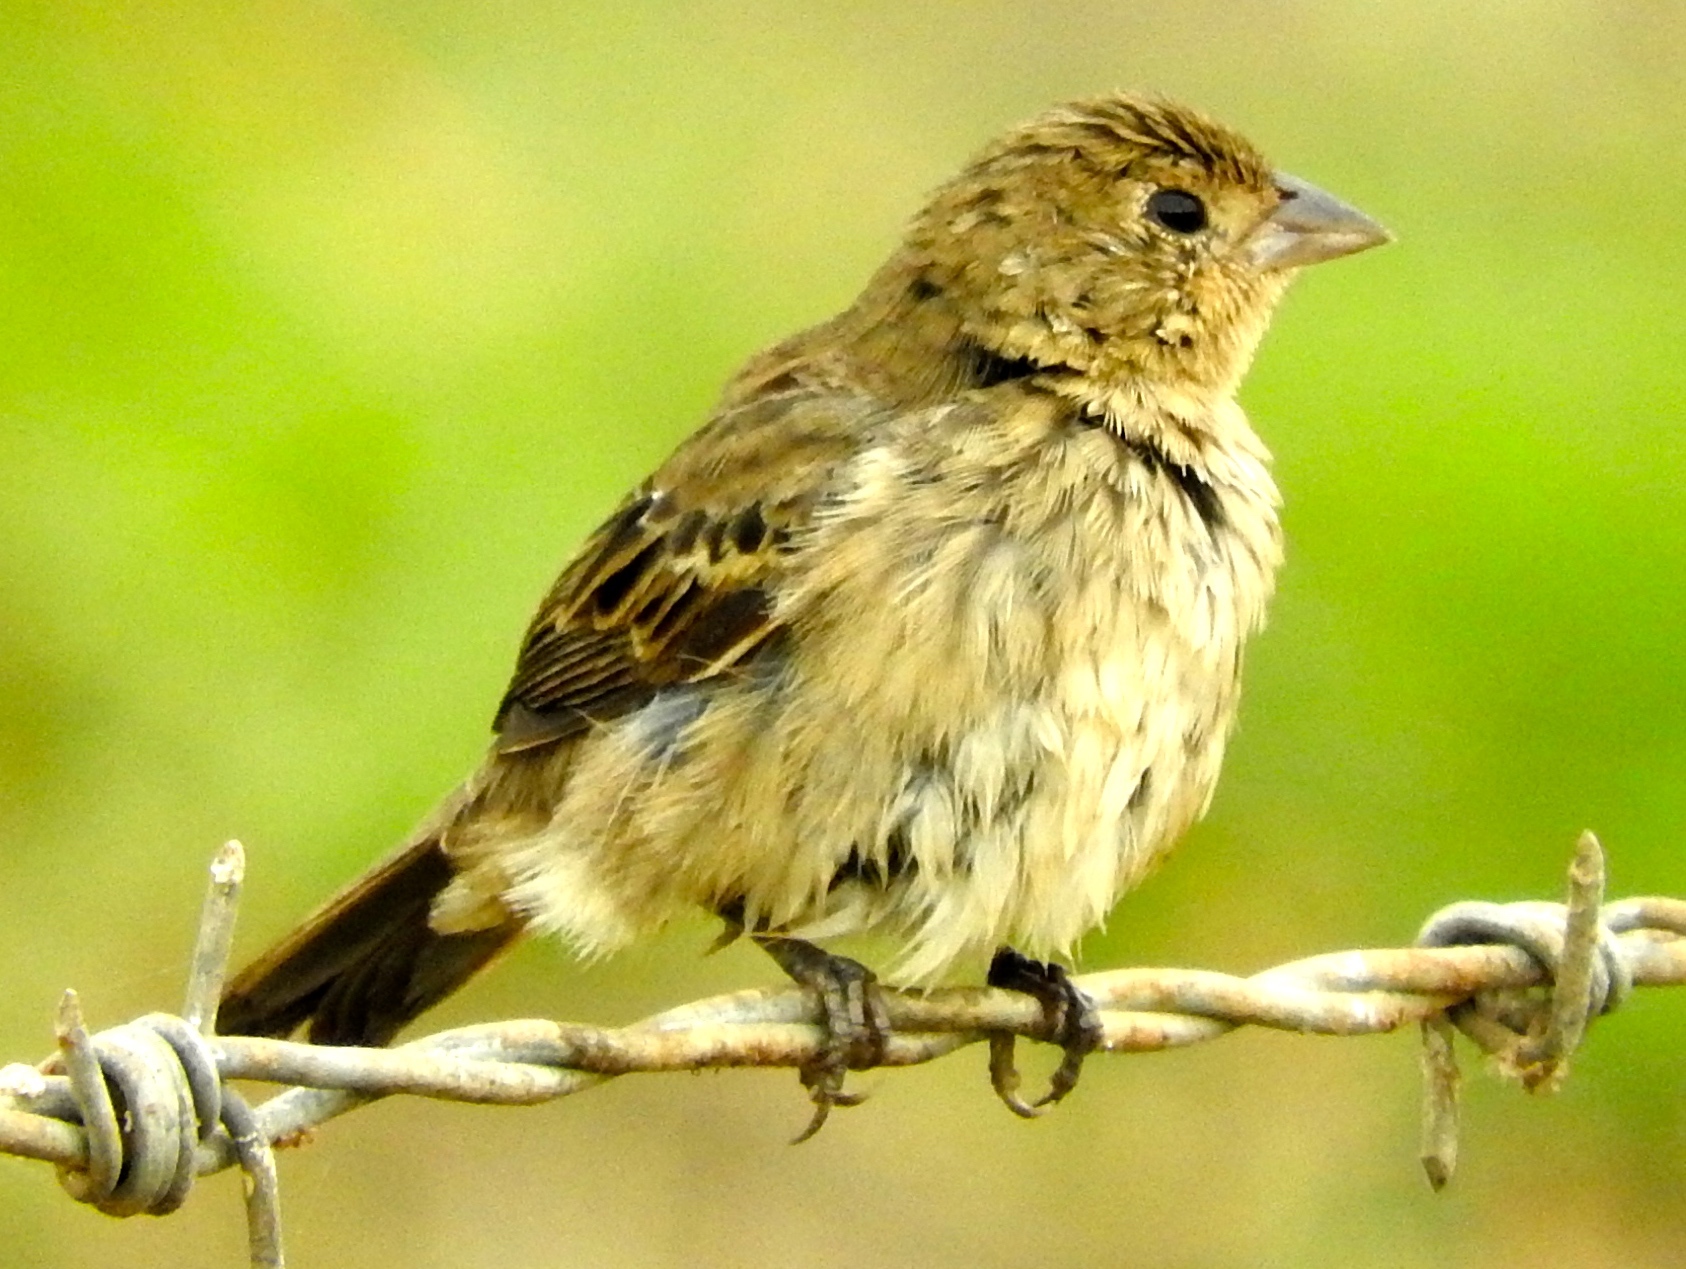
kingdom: Animalia
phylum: Chordata
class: Aves
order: Passeriformes
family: Thraupidae
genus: Volatinia
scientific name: Volatinia jacarina
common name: Blue-black grassquit
